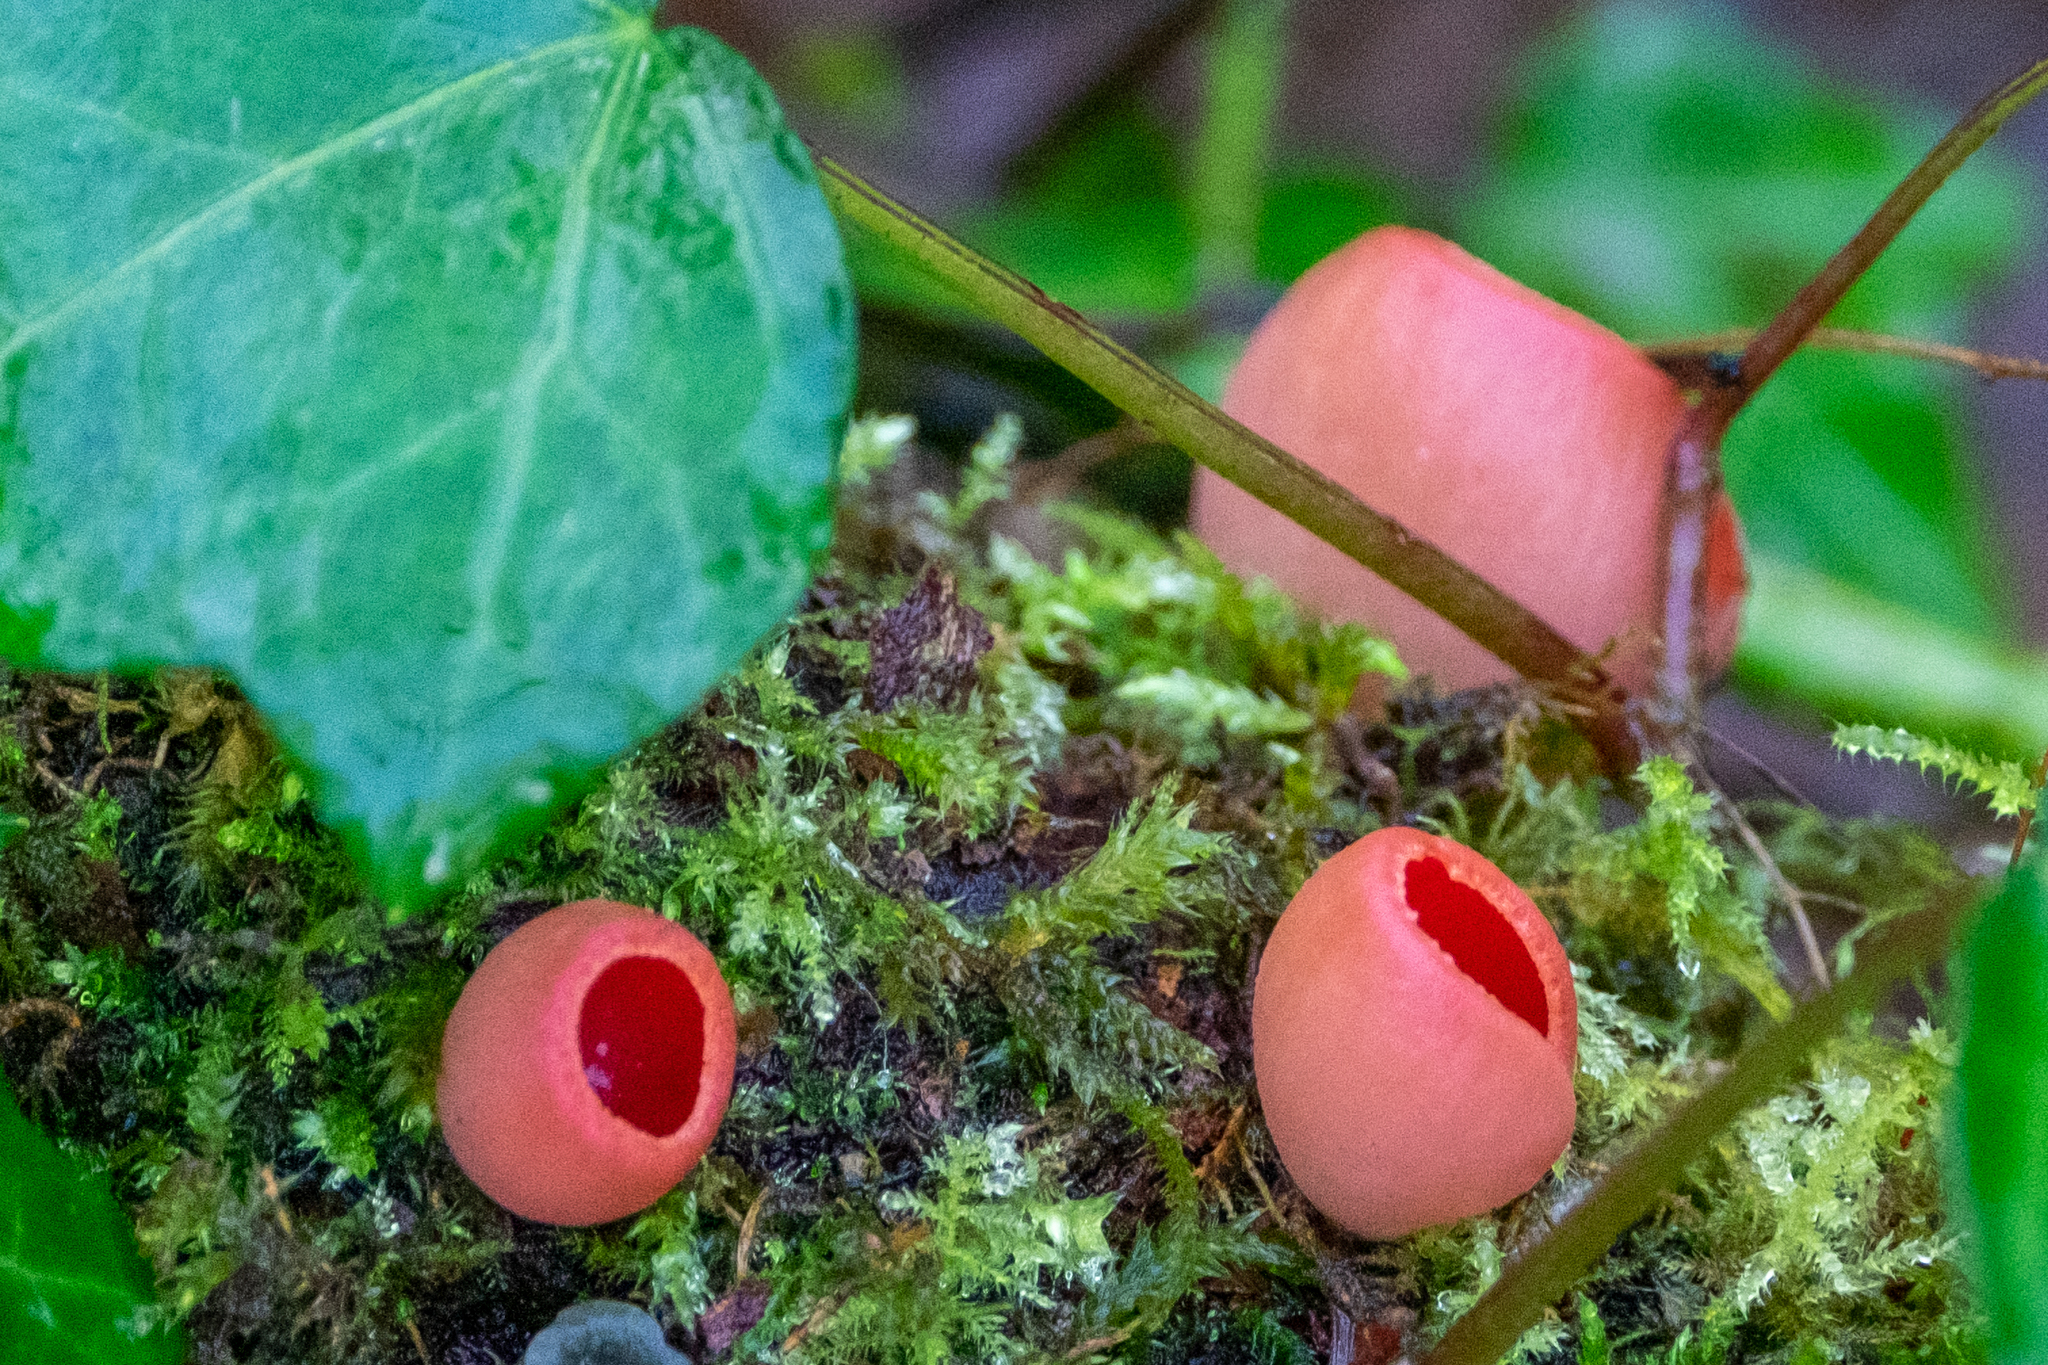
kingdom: Fungi
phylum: Ascomycota
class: Pezizomycetes
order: Pezizales
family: Sarcoscyphaceae
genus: Sarcoscypha
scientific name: Sarcoscypha
